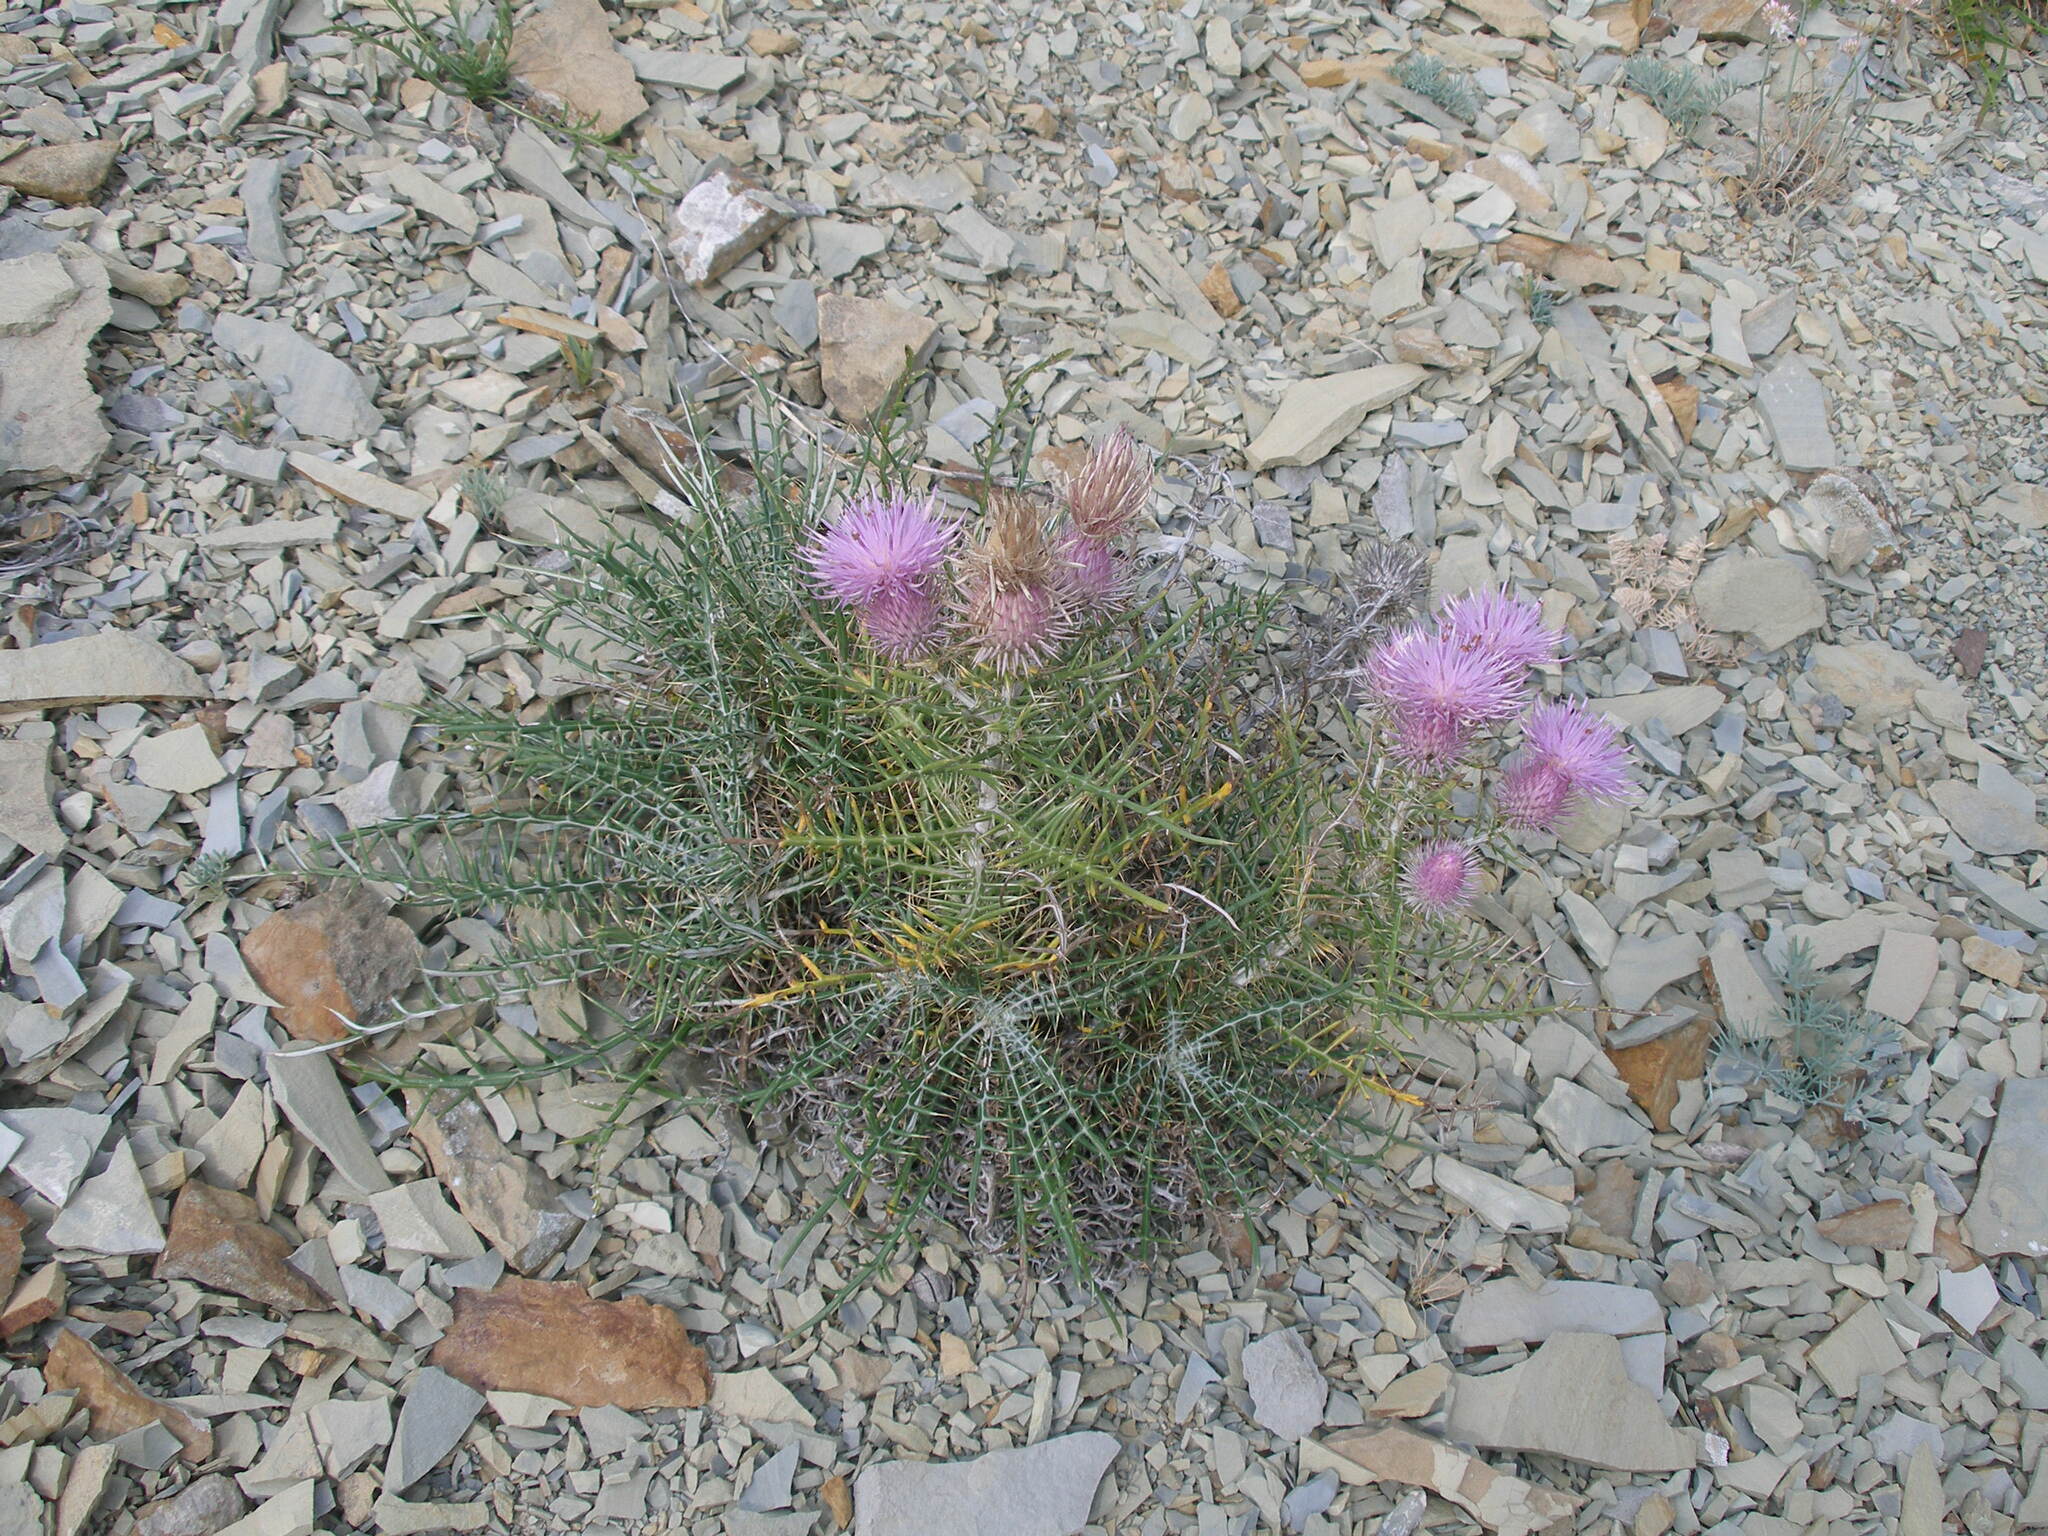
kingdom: Plantae
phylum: Tracheophyta
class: Magnoliopsida
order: Asterales
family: Asteraceae
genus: Ptilostemon
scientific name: Ptilostemon echinocephalus
